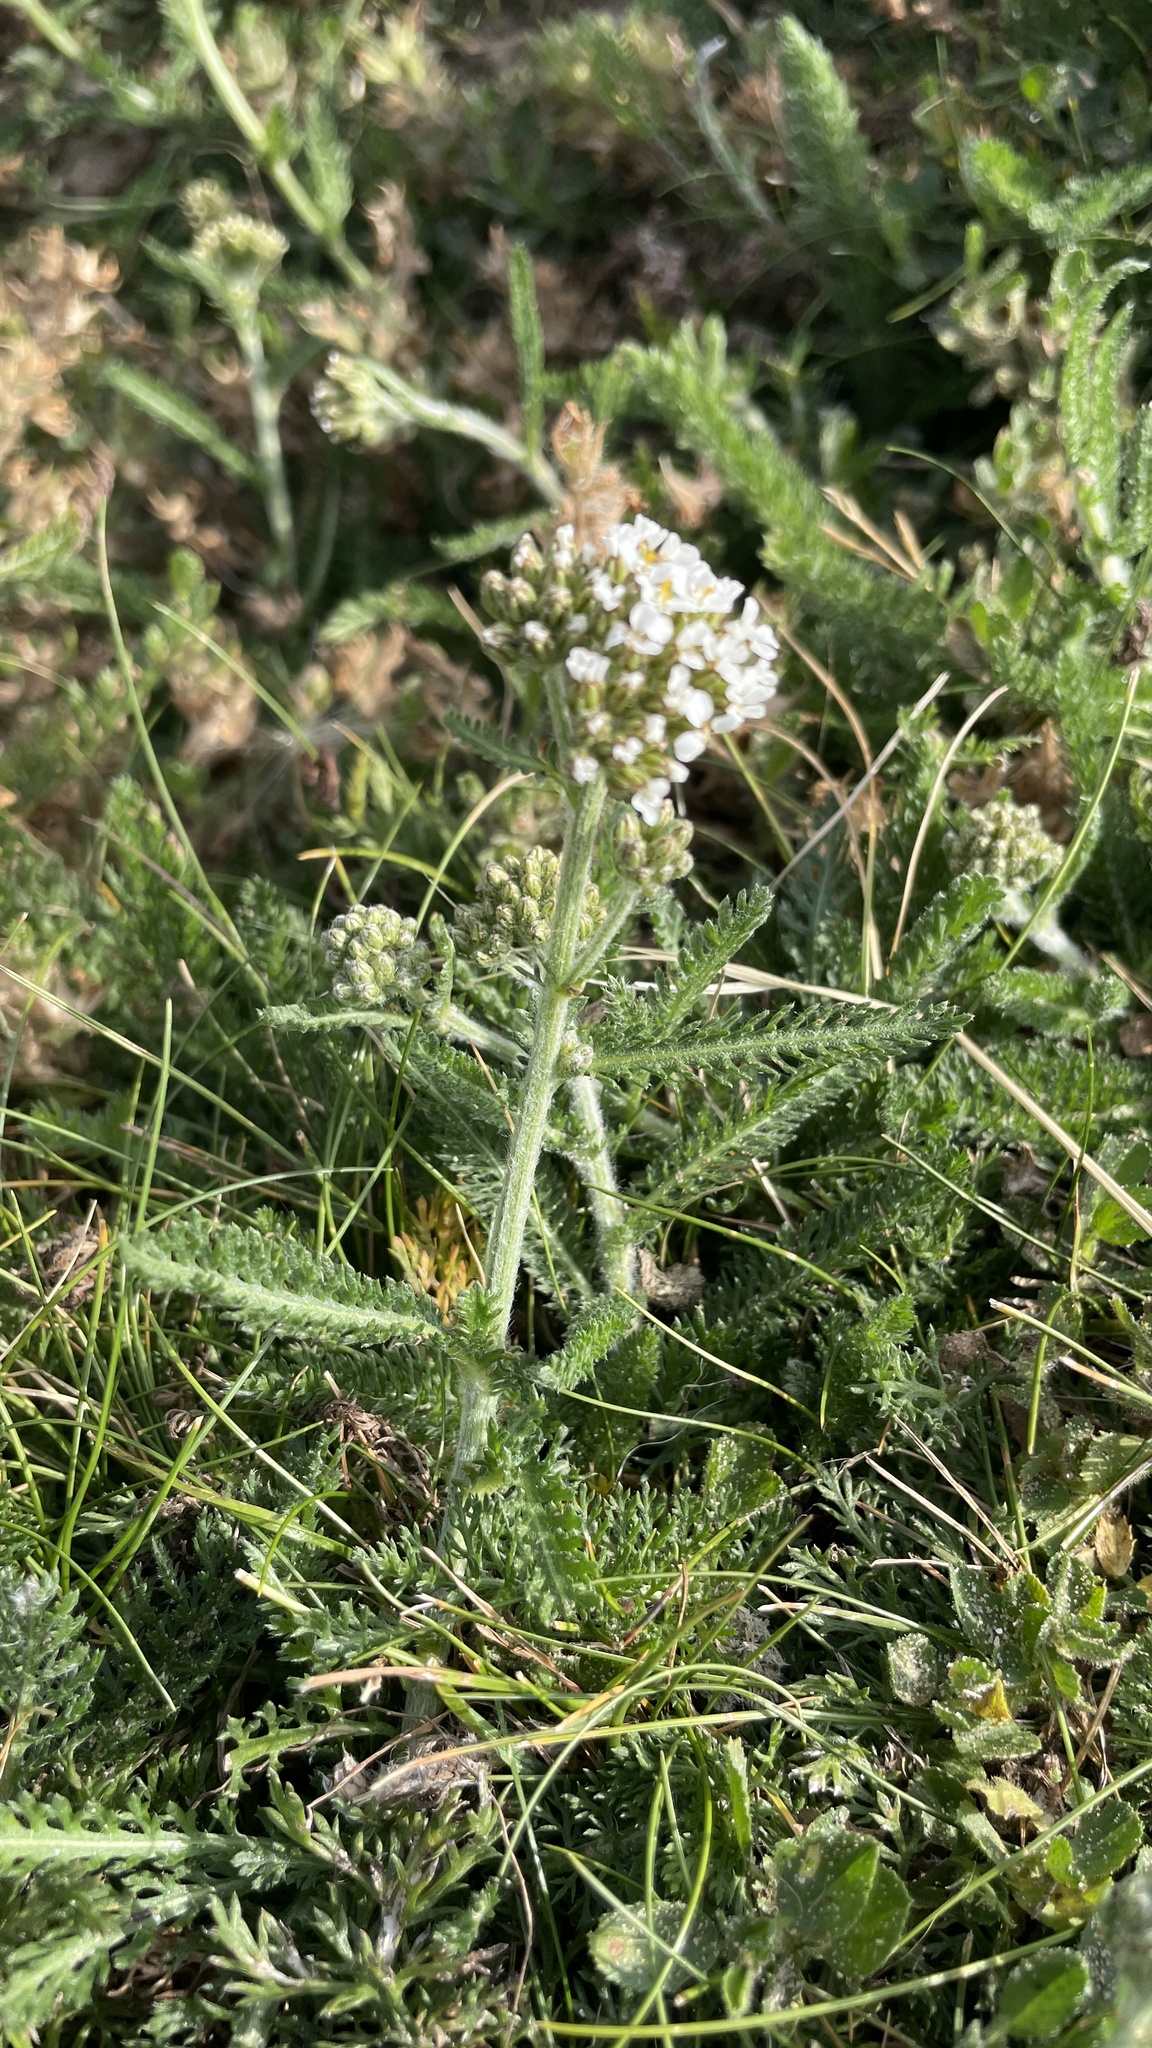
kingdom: Plantae
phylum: Tracheophyta
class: Magnoliopsida
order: Asterales
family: Asteraceae
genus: Achillea
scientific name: Achillea millefolium
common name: Yarrow
